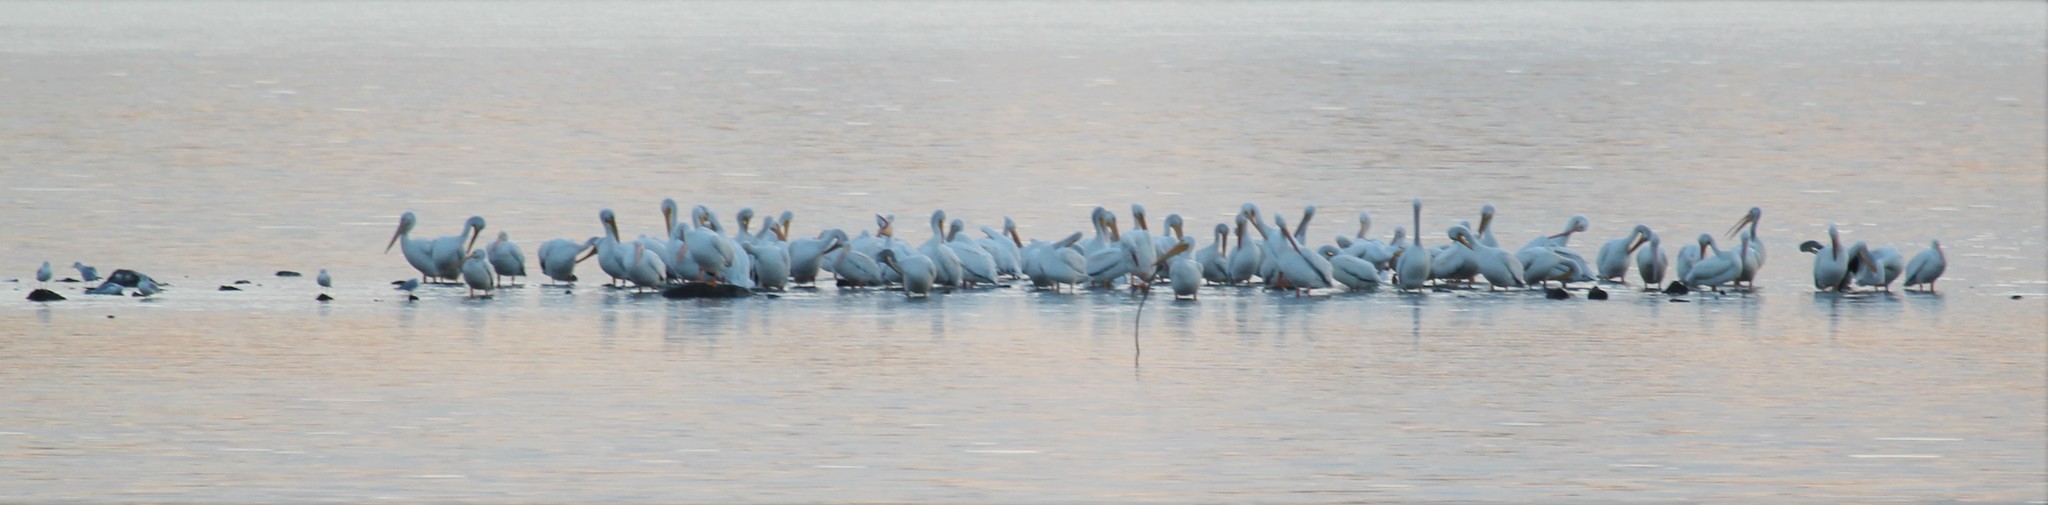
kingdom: Animalia
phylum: Chordata
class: Aves
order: Pelecaniformes
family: Pelecanidae
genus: Pelecanus
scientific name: Pelecanus erythrorhynchos
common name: American white pelican
